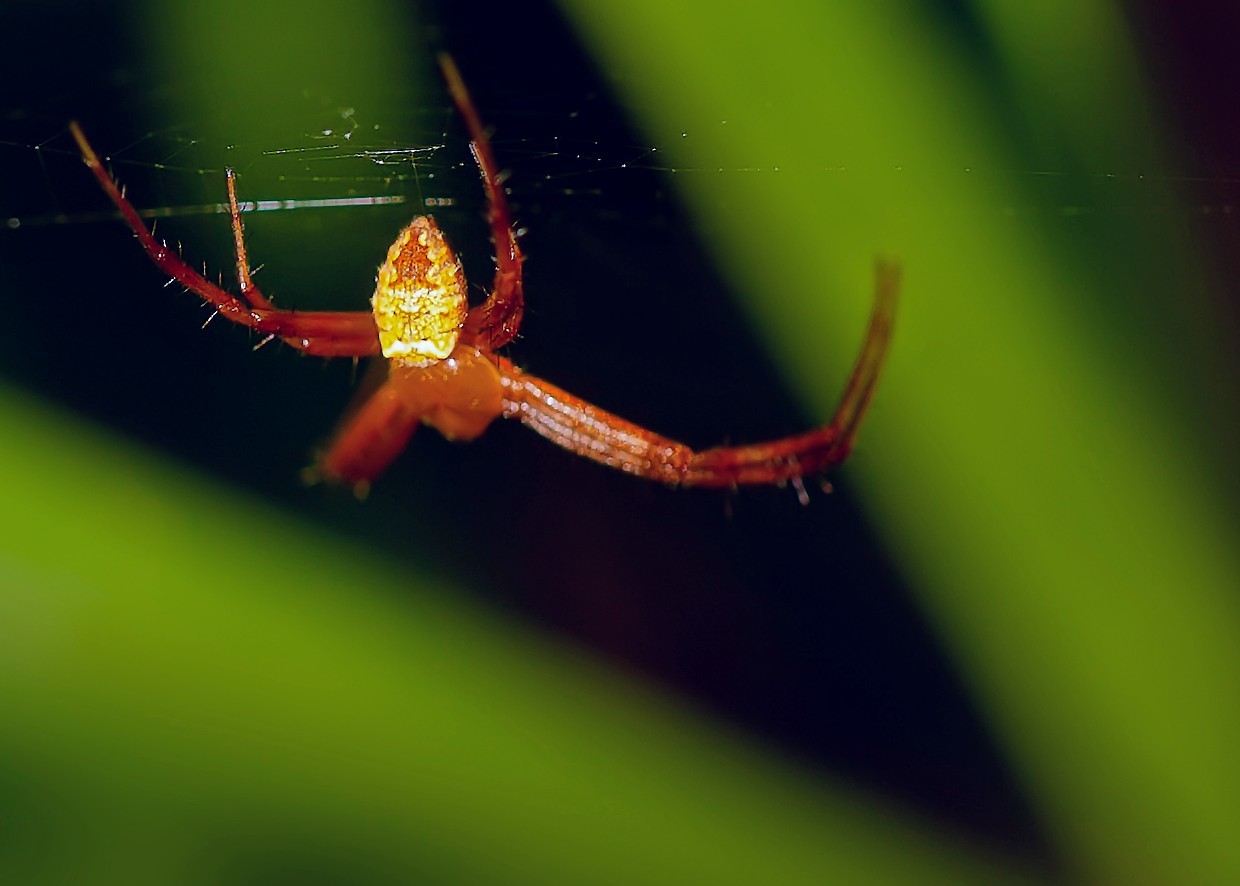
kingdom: Animalia
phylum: Arthropoda
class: Arachnida
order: Araneae
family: Araneidae
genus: Gea
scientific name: Gea heptagon
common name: Orb weavers
